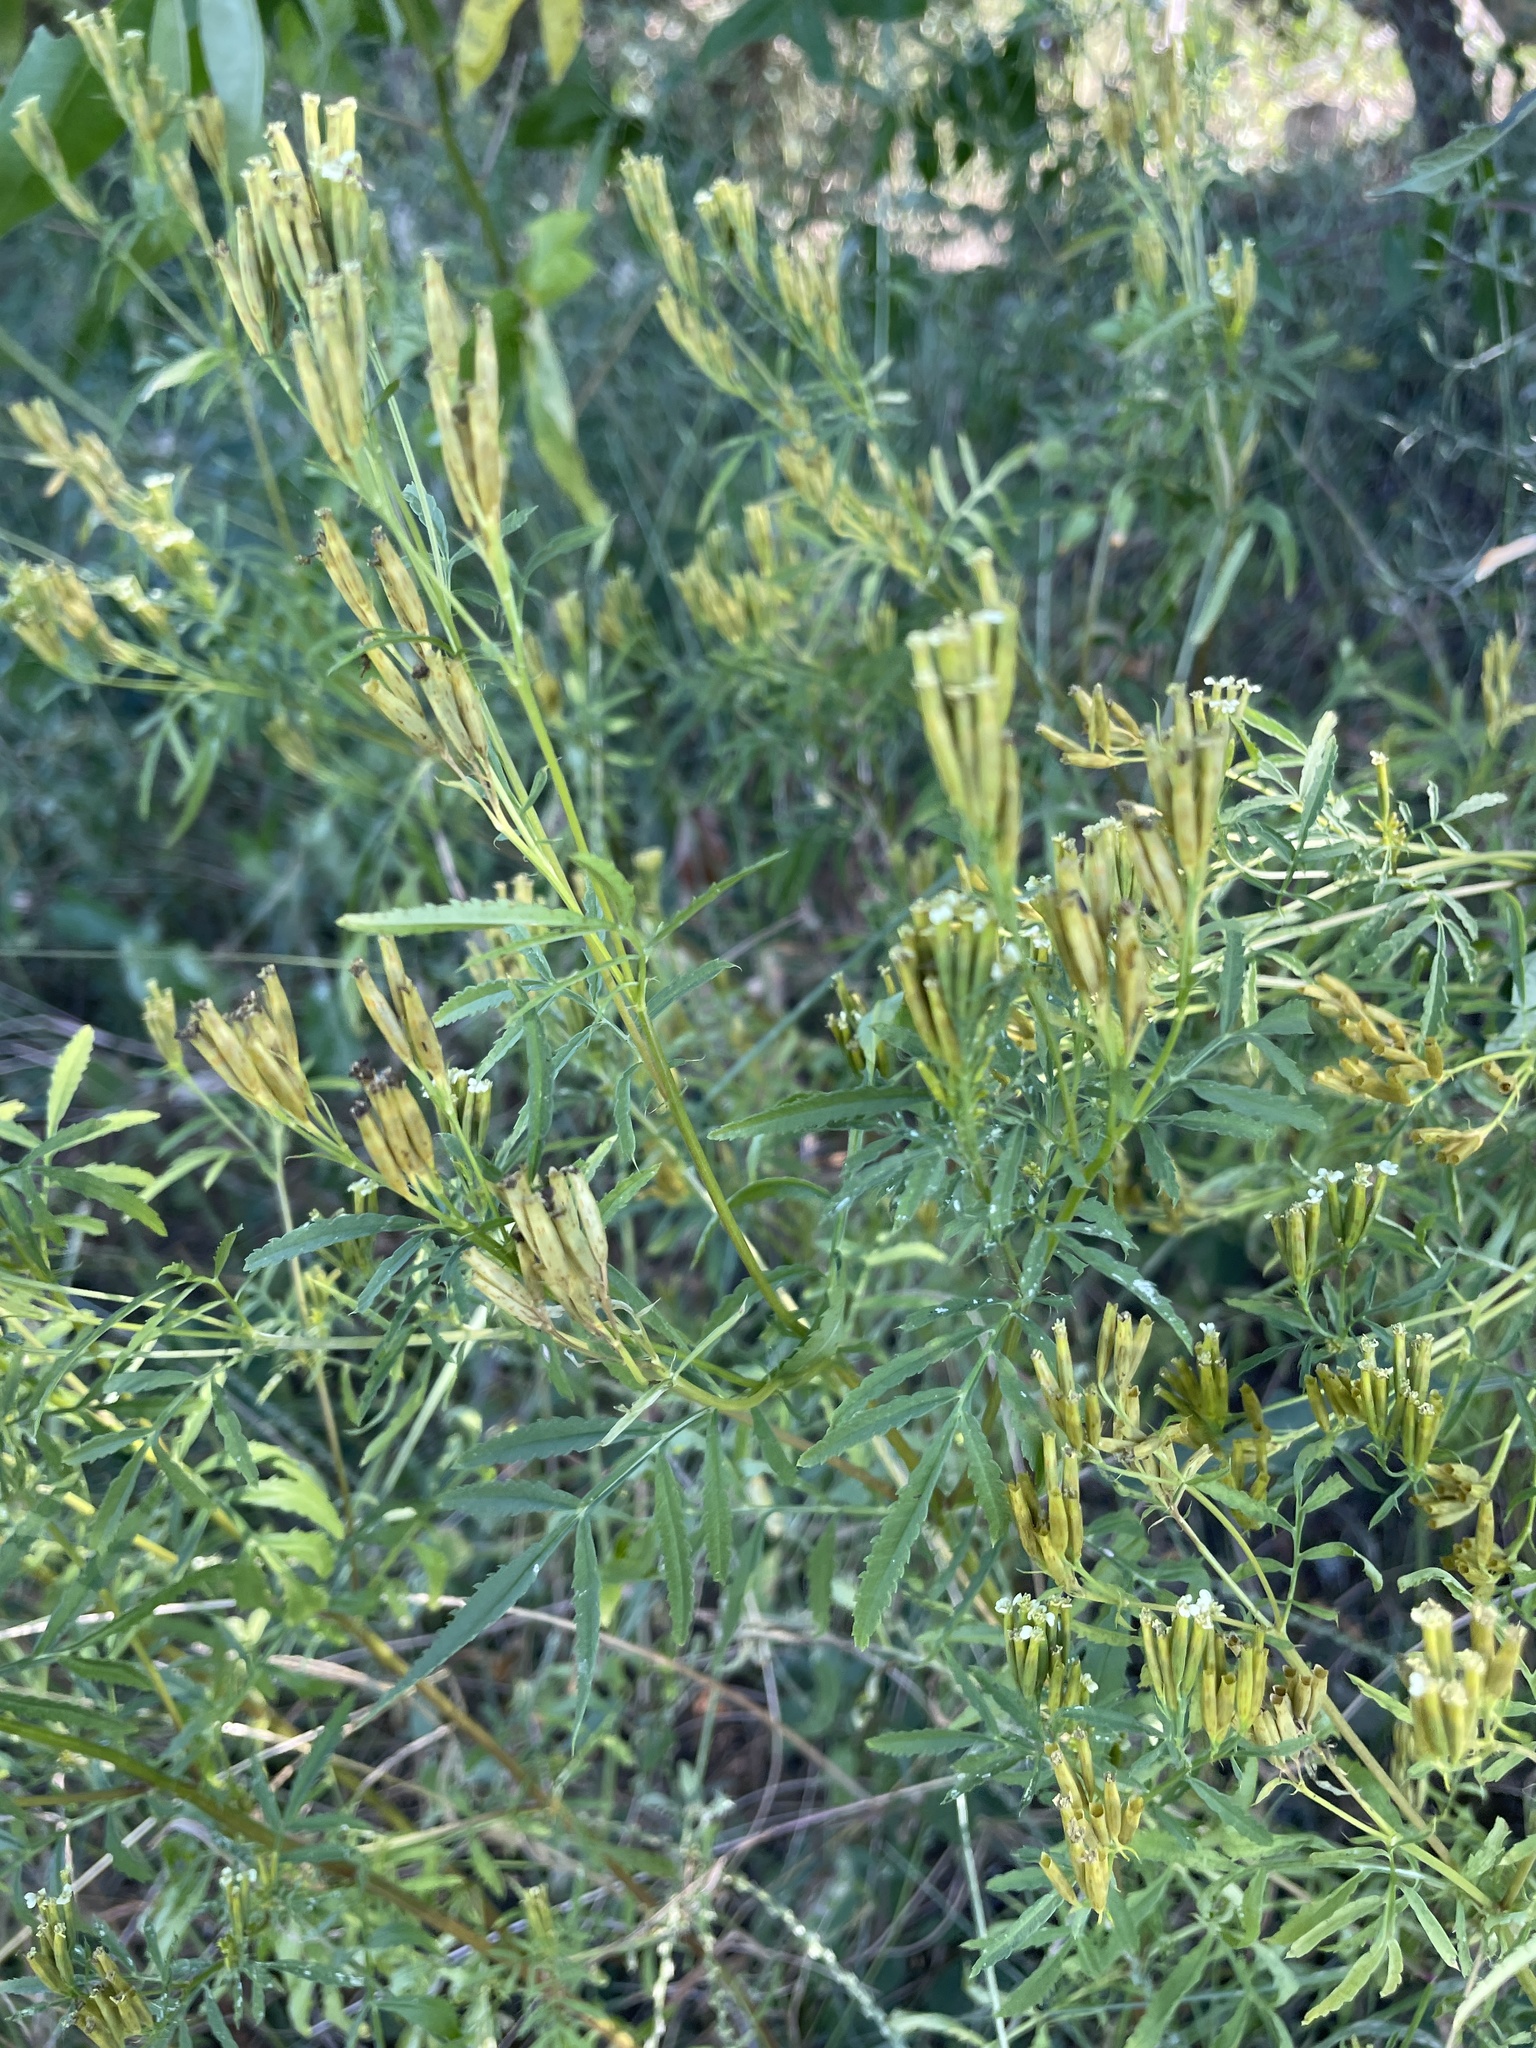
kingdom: Plantae
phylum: Tracheophyta
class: Magnoliopsida
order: Asterales
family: Asteraceae
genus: Tagetes
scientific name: Tagetes minuta
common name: Muster john henry
